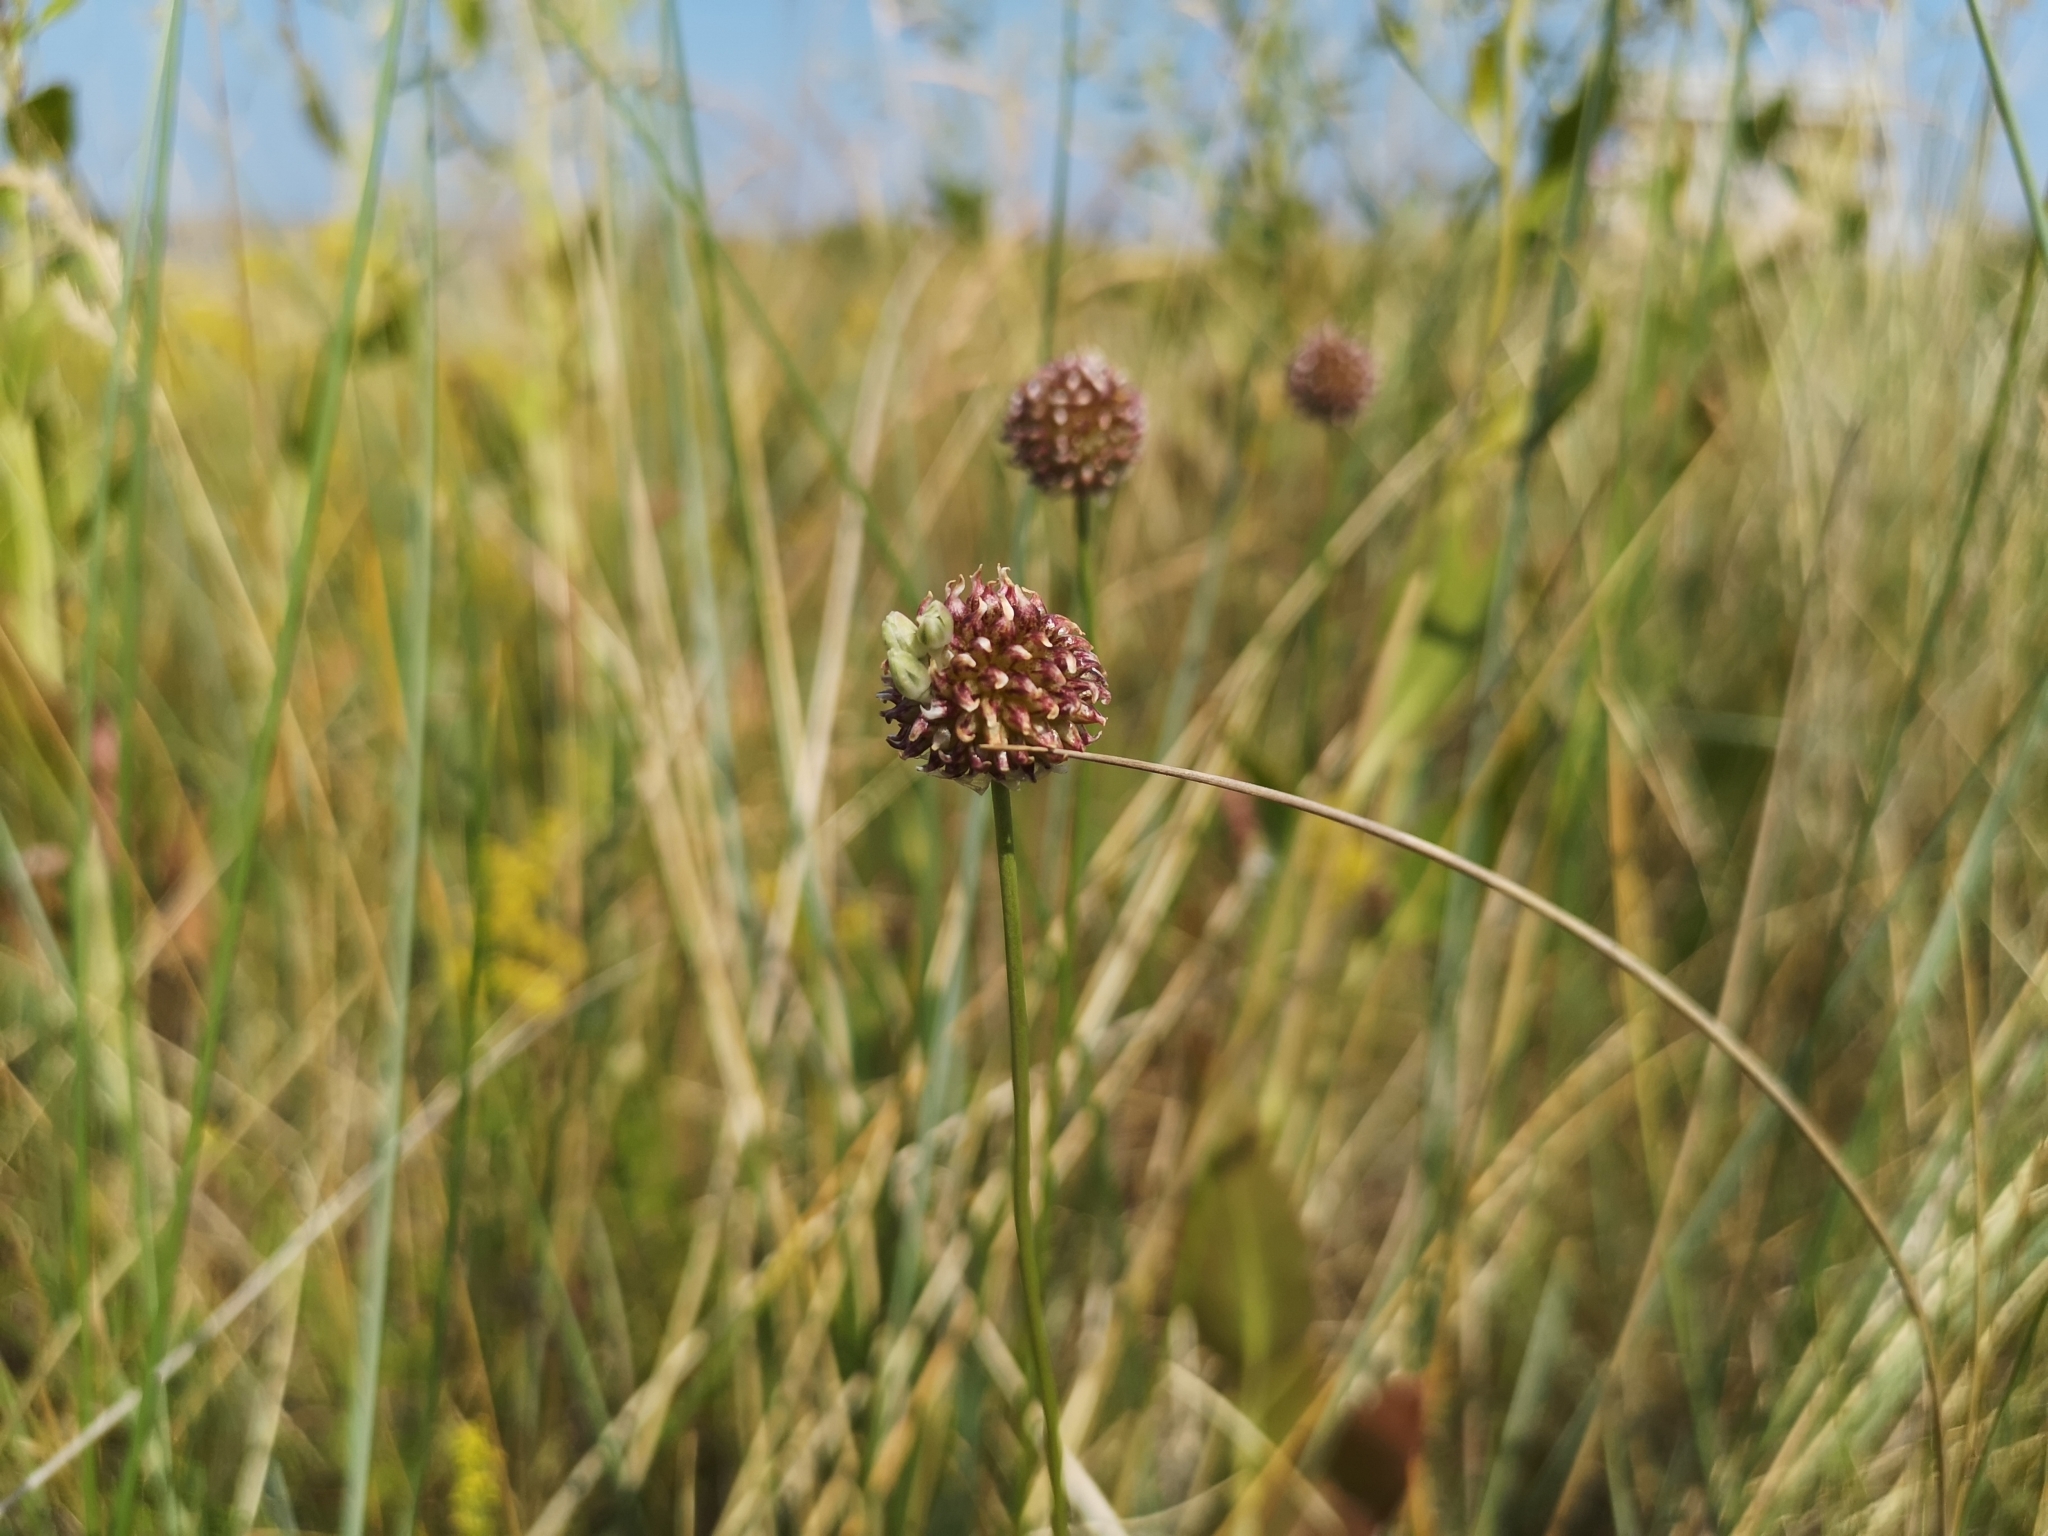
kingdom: Plantae
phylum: Tracheophyta
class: Liliopsida
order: Asparagales
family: Amaryllidaceae
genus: Allium
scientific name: Allium vineale
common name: Crow garlic
